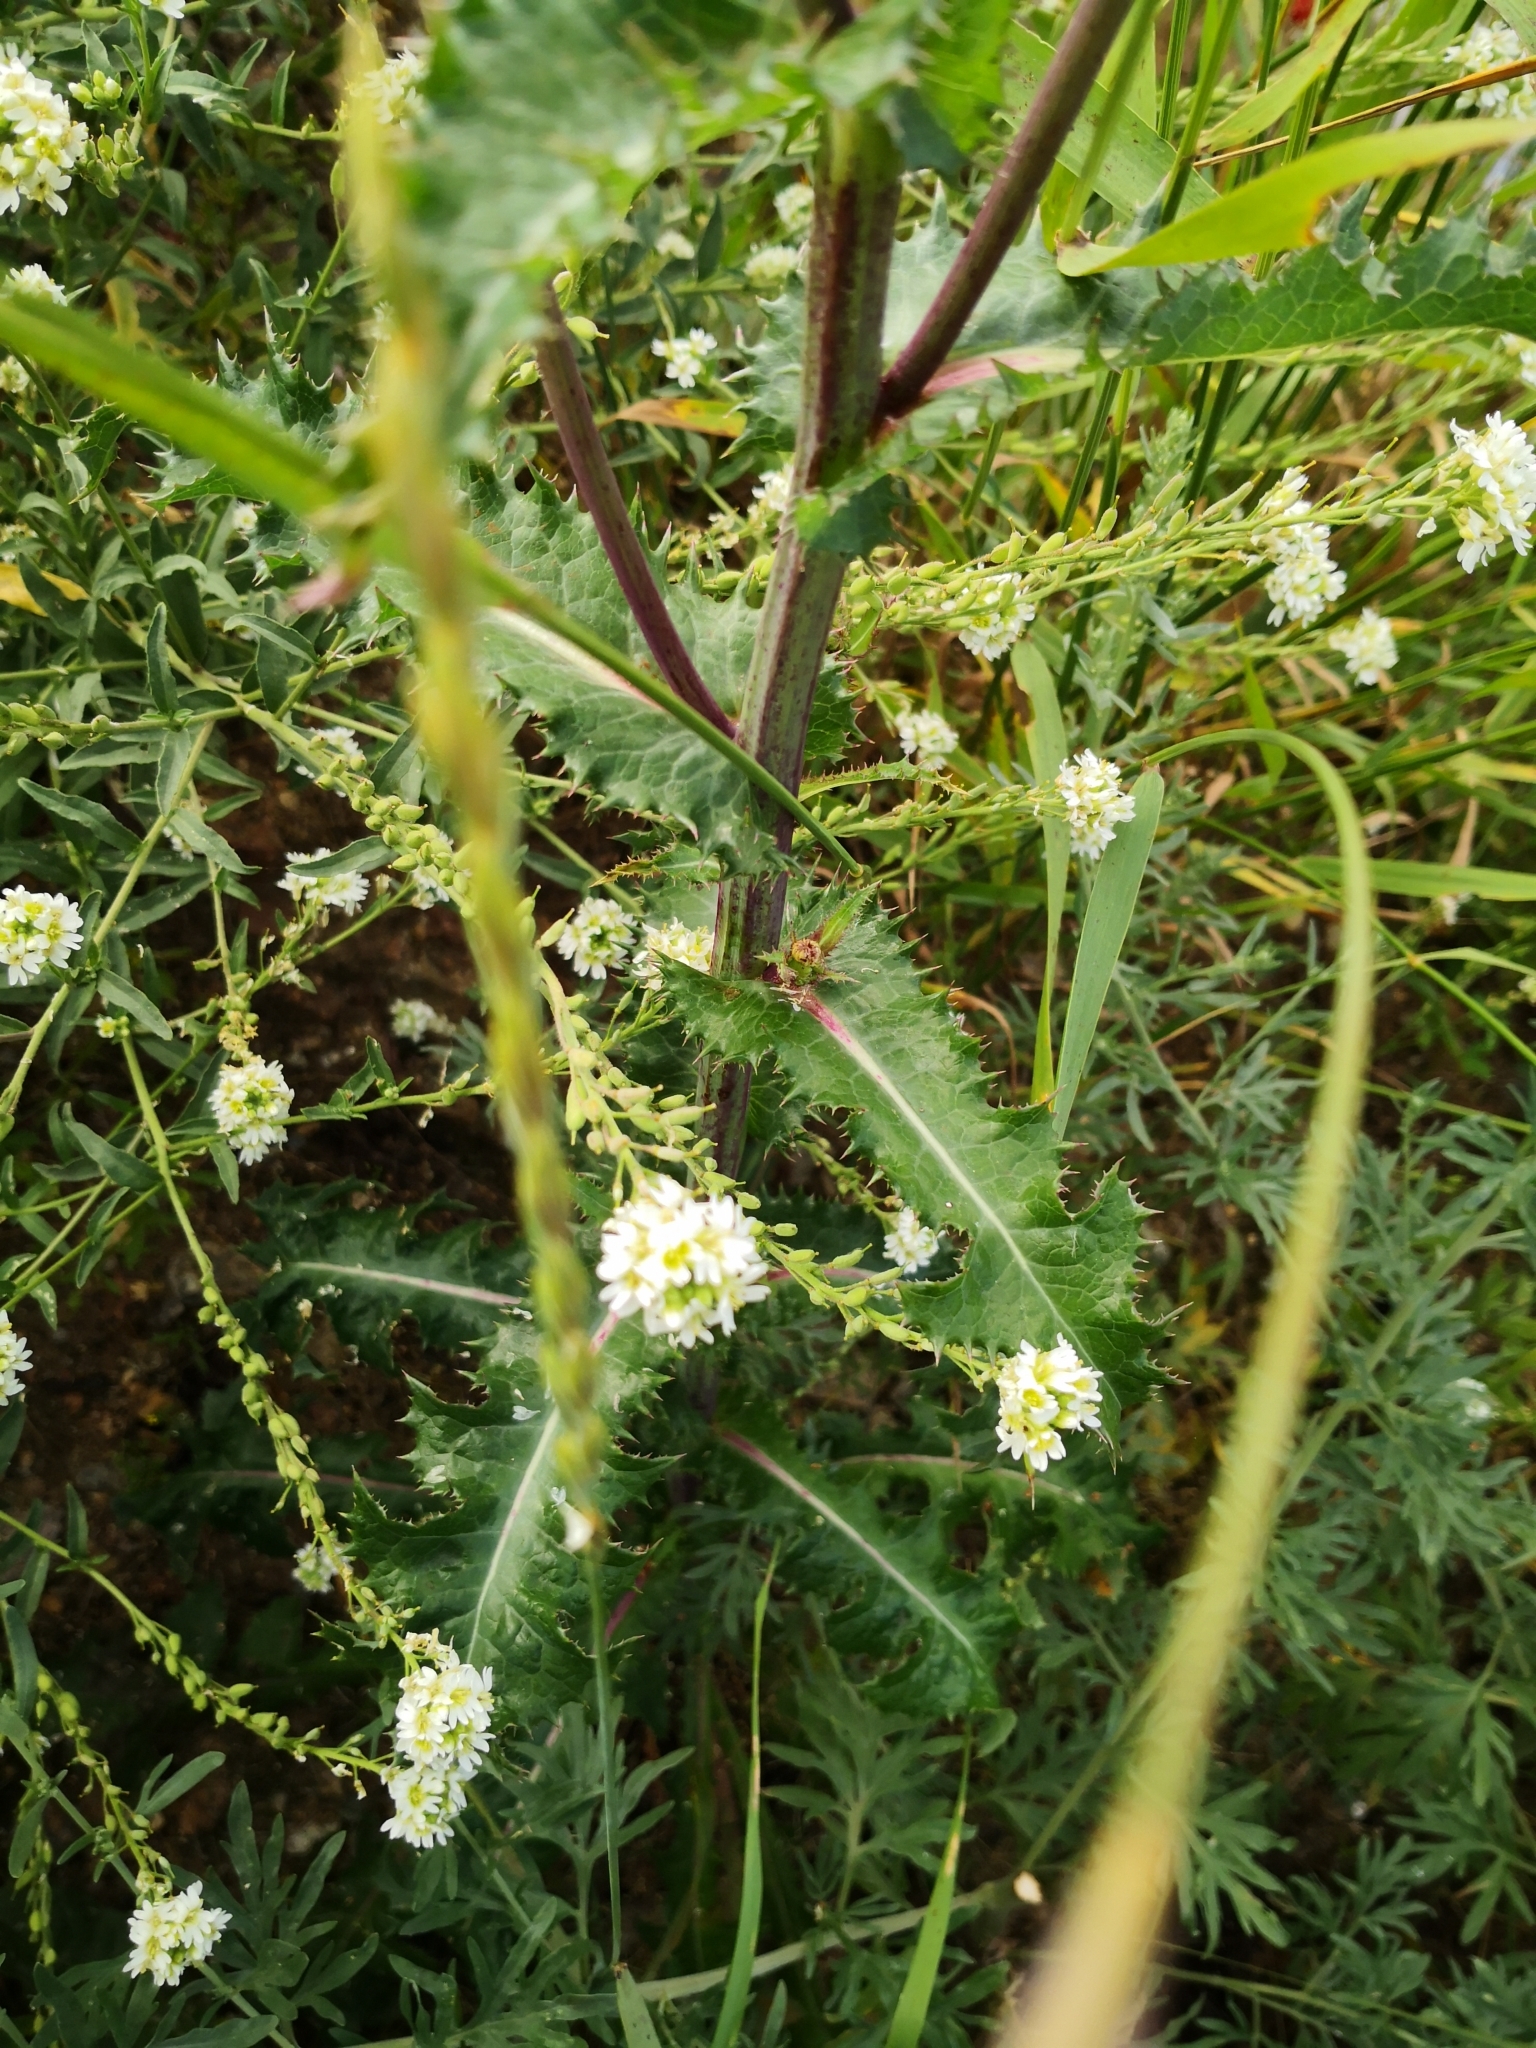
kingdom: Plantae
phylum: Tracheophyta
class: Magnoliopsida
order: Asterales
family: Asteraceae
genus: Sonchus
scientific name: Sonchus asper
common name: Prickly sow-thistle
